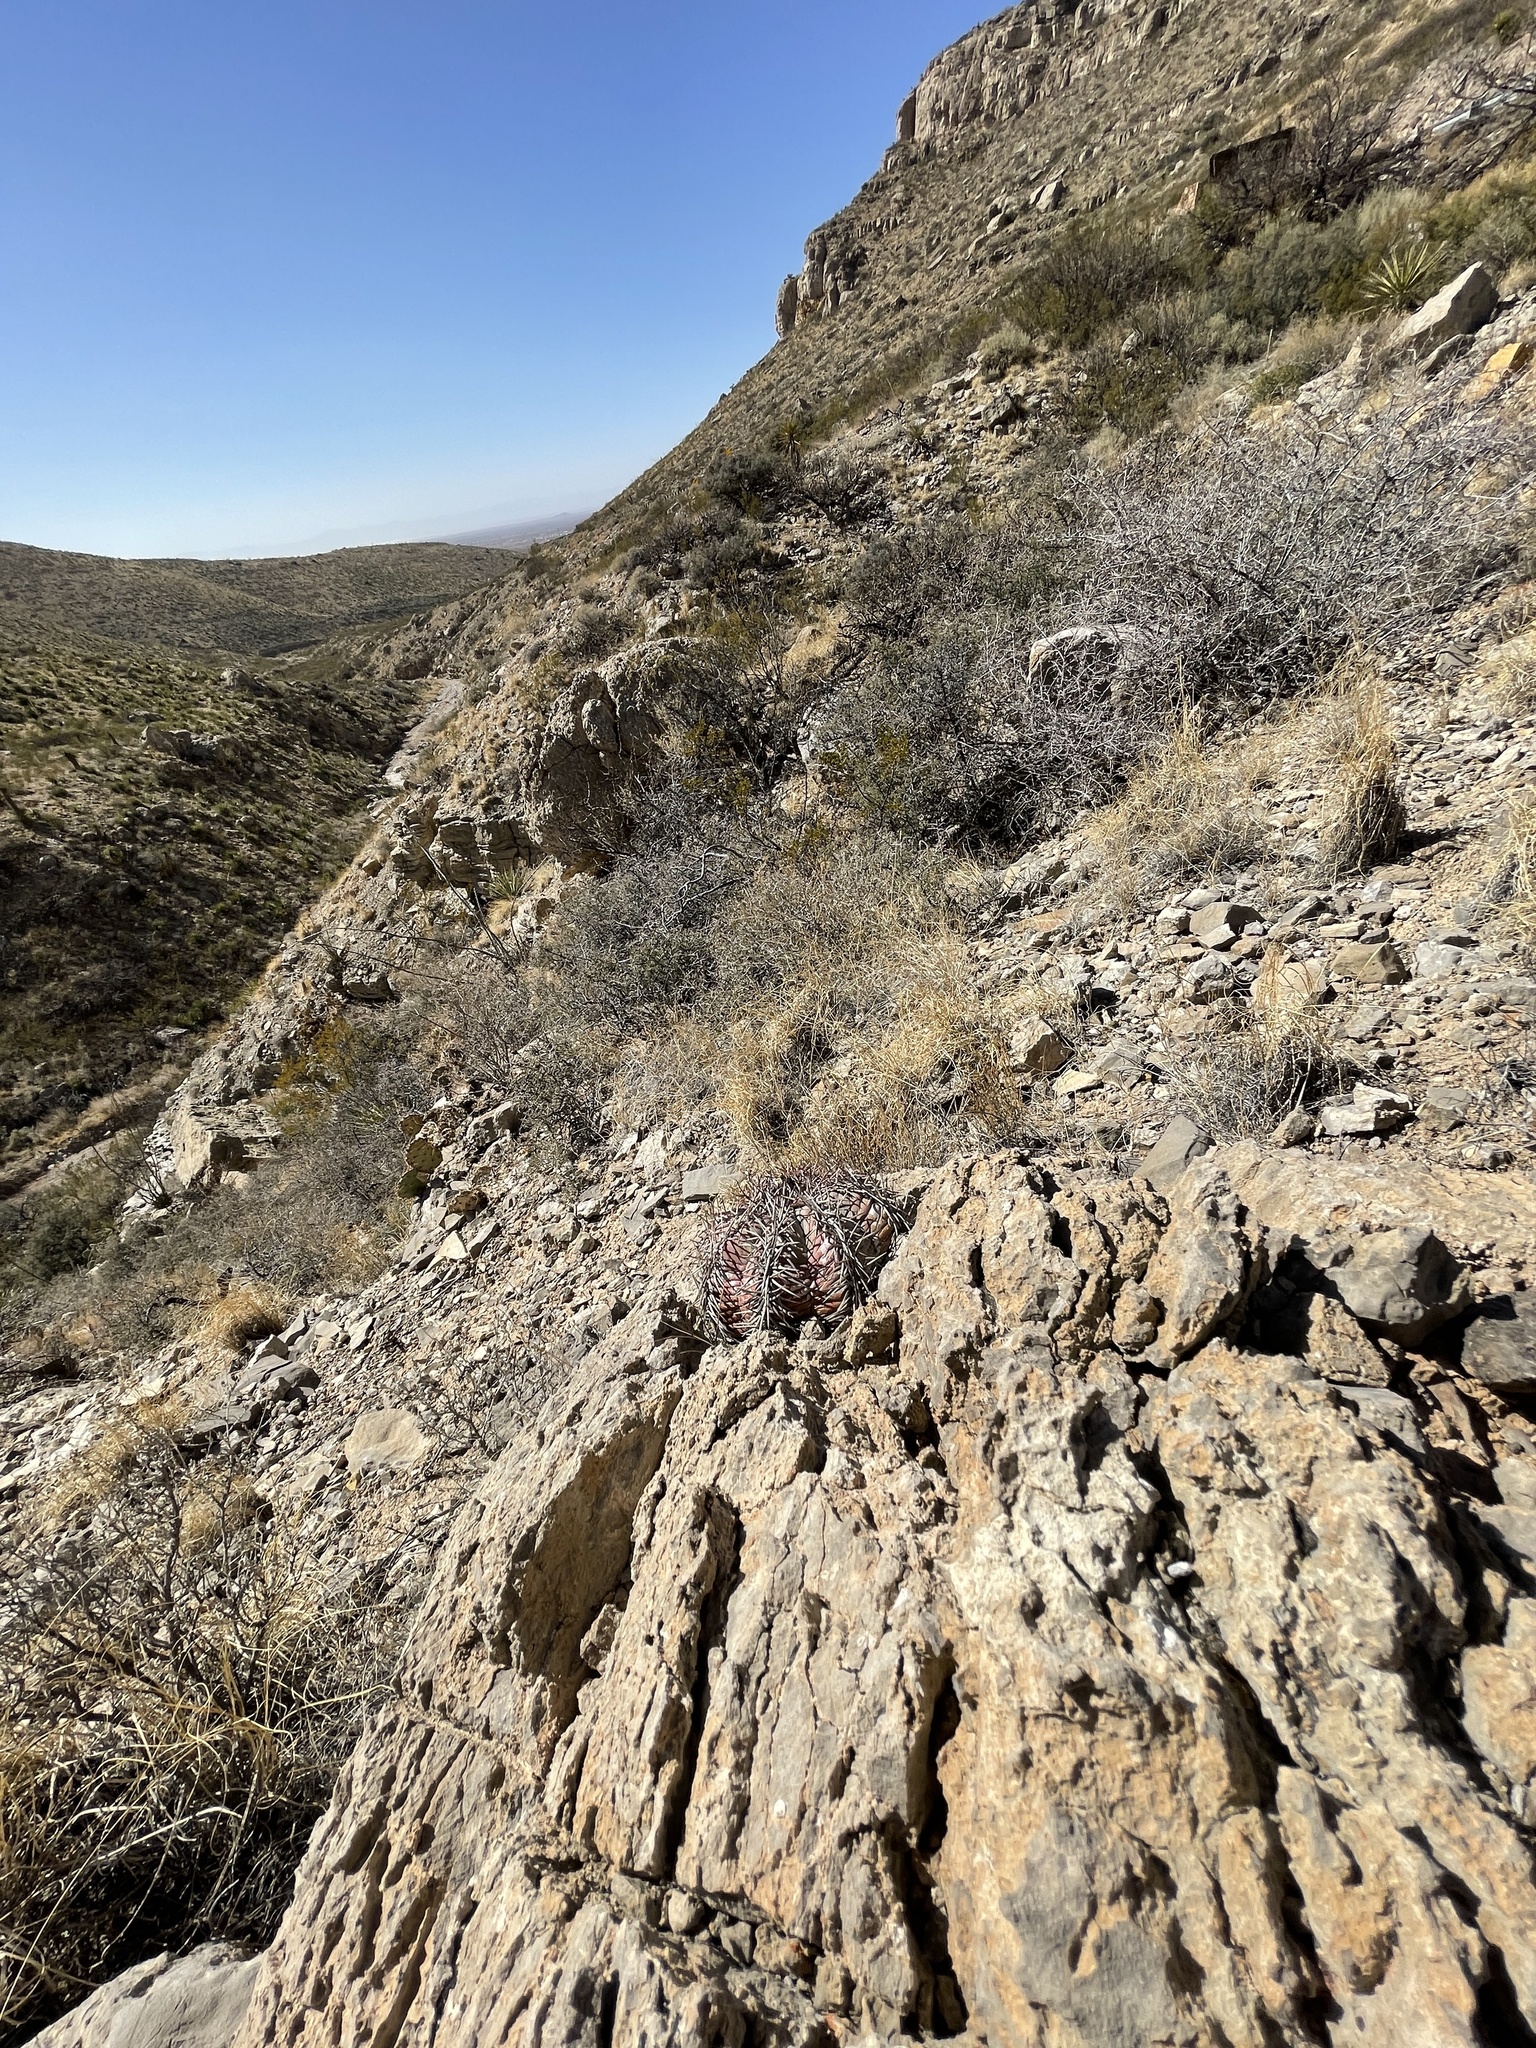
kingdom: Plantae
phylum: Tracheophyta
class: Magnoliopsida
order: Caryophyllales
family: Cactaceae
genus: Echinocactus
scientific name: Echinocactus horizonthalonius
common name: Devilshead
